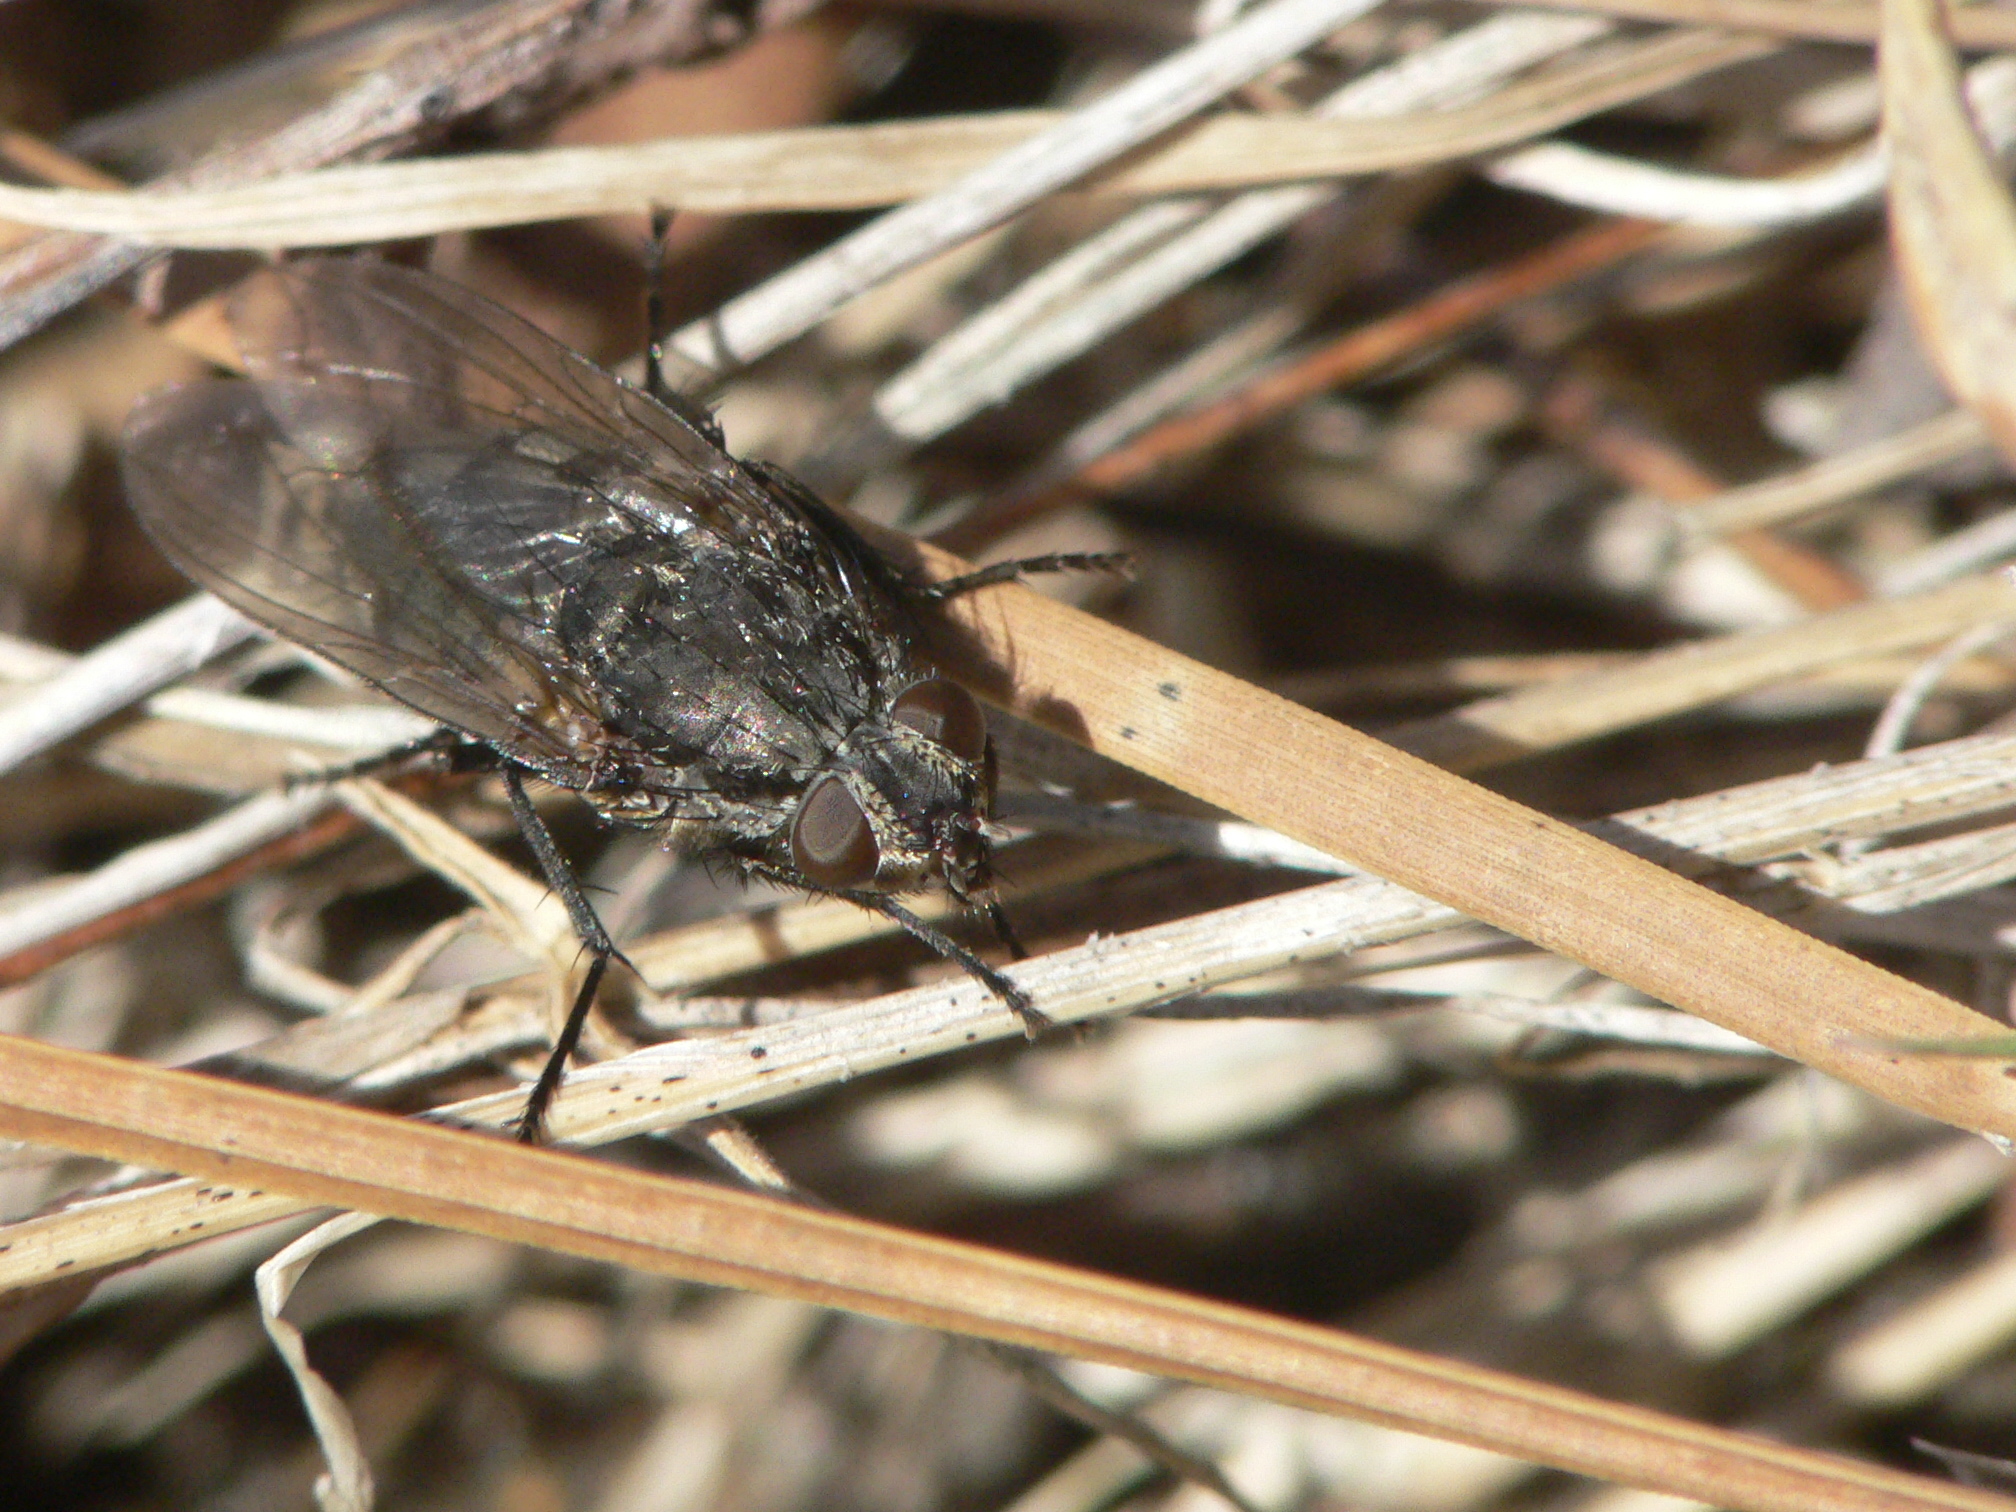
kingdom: Animalia
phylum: Arthropoda
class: Insecta
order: Diptera
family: Polleniidae
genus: Pollenia
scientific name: Pollenia vagabunda
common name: Vagabund cluster fly
